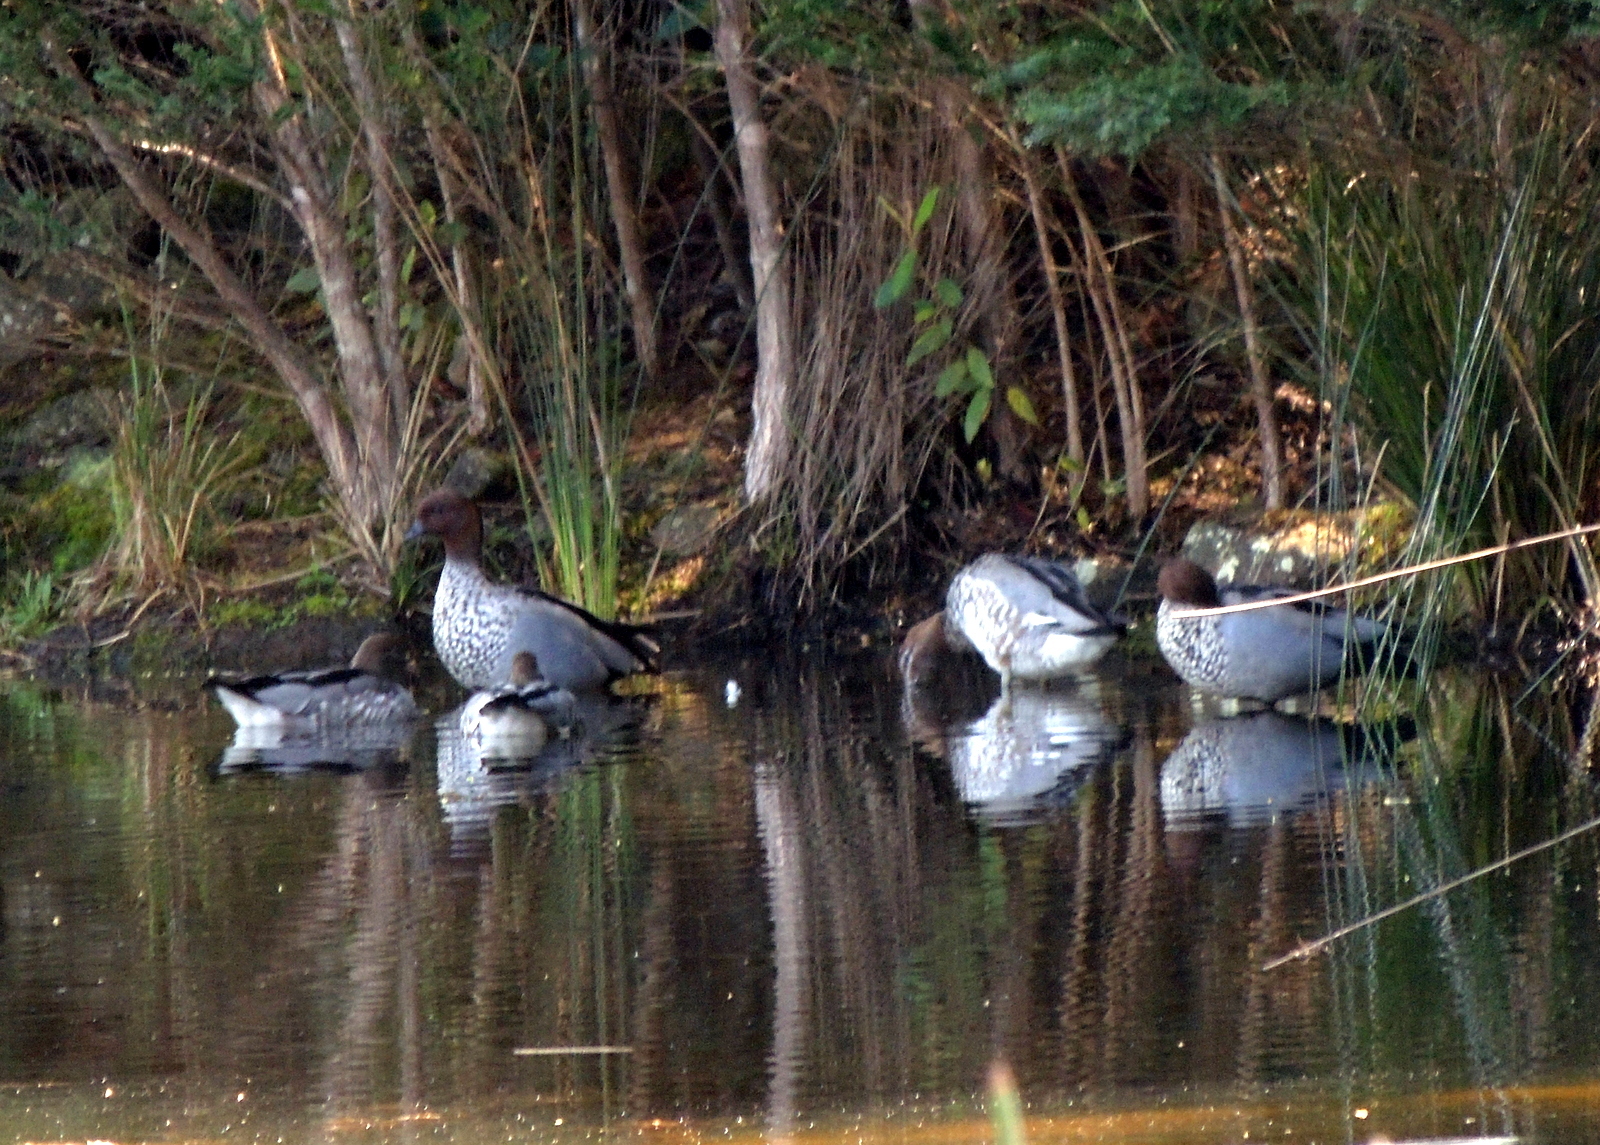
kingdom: Animalia
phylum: Chordata
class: Aves
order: Anseriformes
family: Anatidae
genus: Chenonetta
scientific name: Chenonetta jubata
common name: Maned duck
